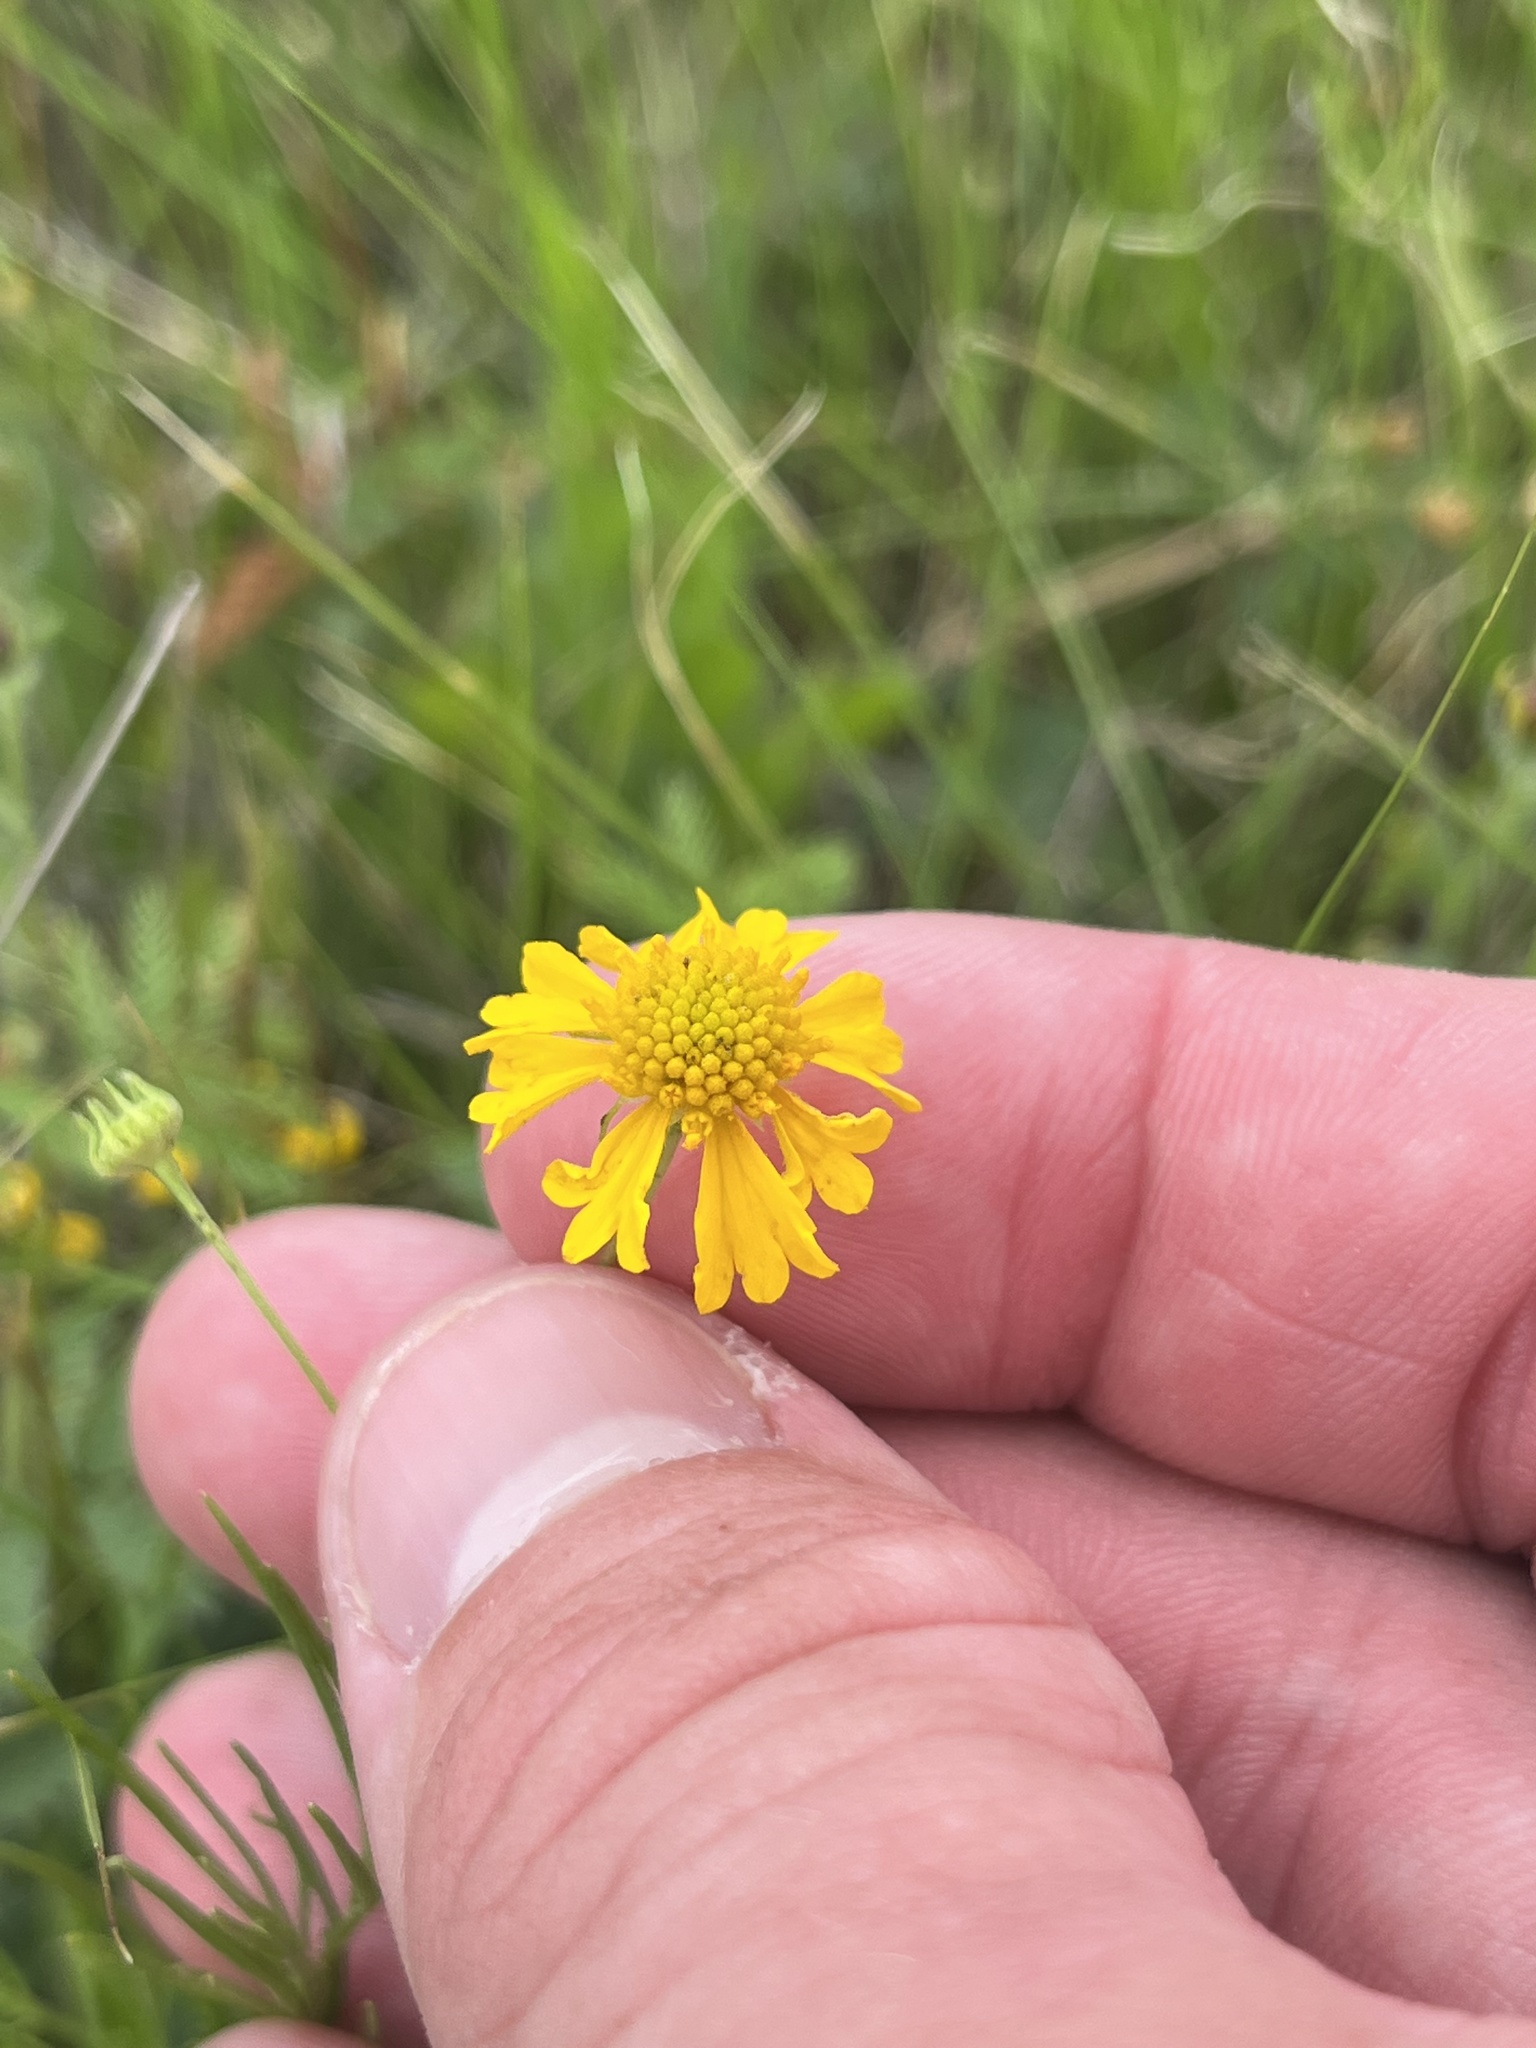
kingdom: Plantae
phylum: Tracheophyta
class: Magnoliopsida
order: Asterales
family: Asteraceae
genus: Helenium
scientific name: Helenium amarum
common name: Bitter sneezeweed
